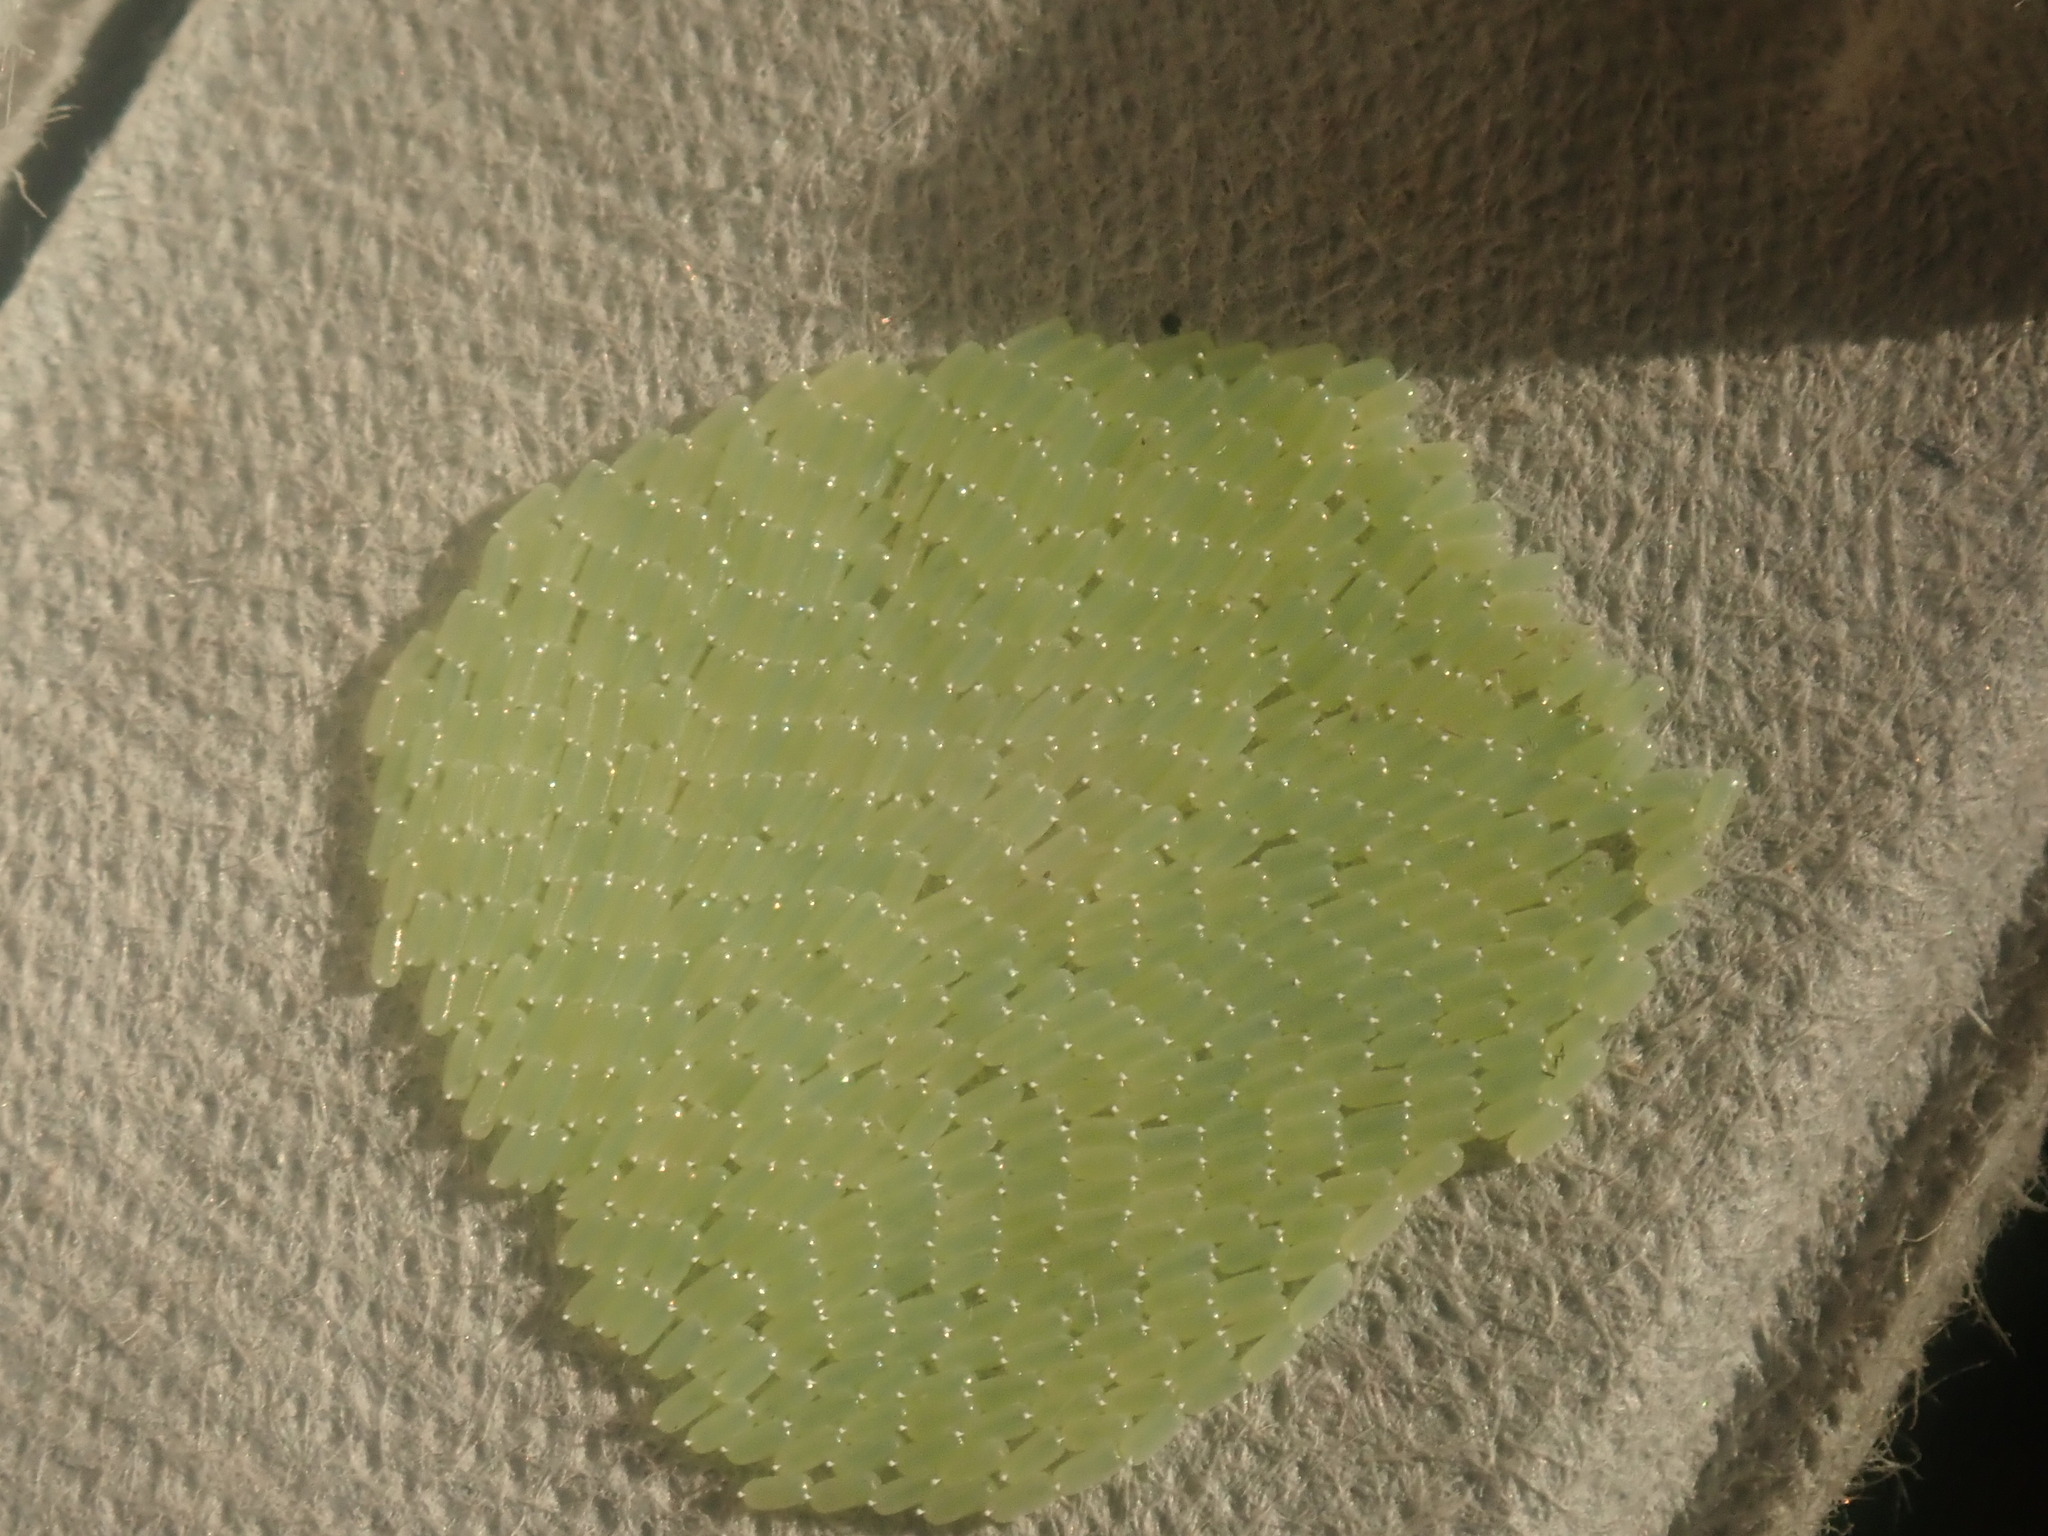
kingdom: Animalia
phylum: Arthropoda
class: Insecta
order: Megaloptera
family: Corydalidae
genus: Chauliodes
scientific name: Chauliodes pectinicornis
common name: Summer fishfly
